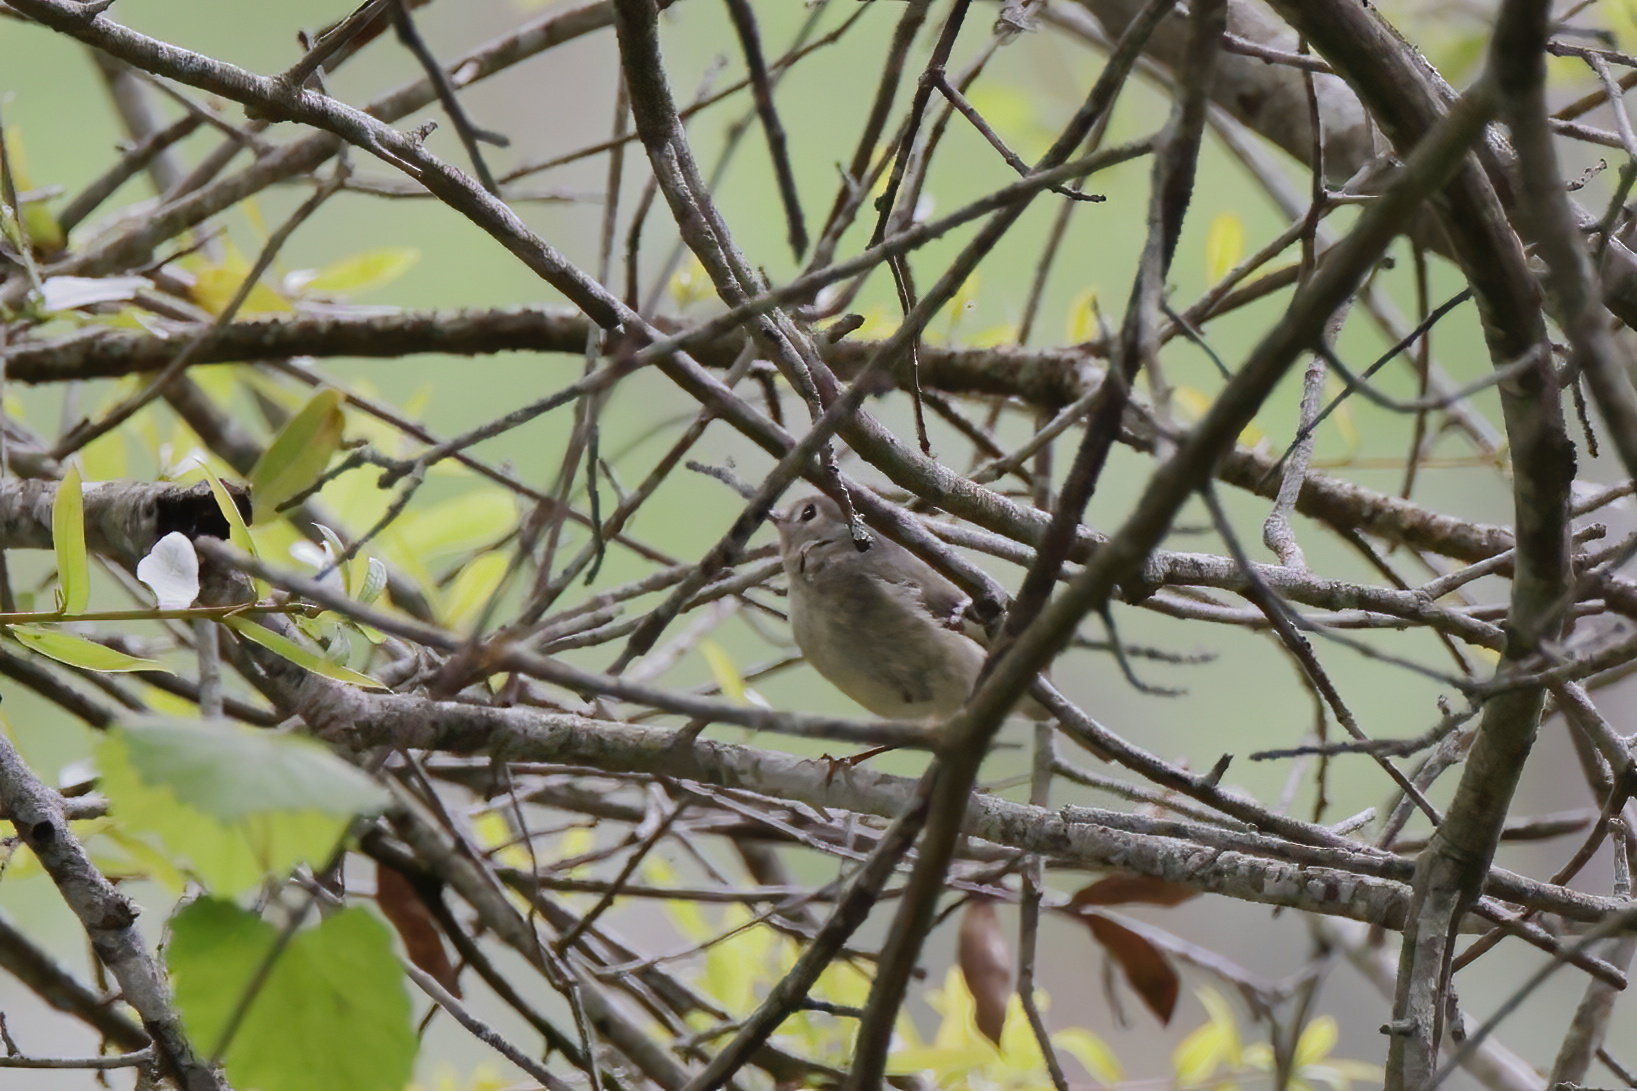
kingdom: Animalia
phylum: Chordata
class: Aves
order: Passeriformes
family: Regulidae
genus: Regulus
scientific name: Regulus calendula
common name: Ruby-crowned kinglet
